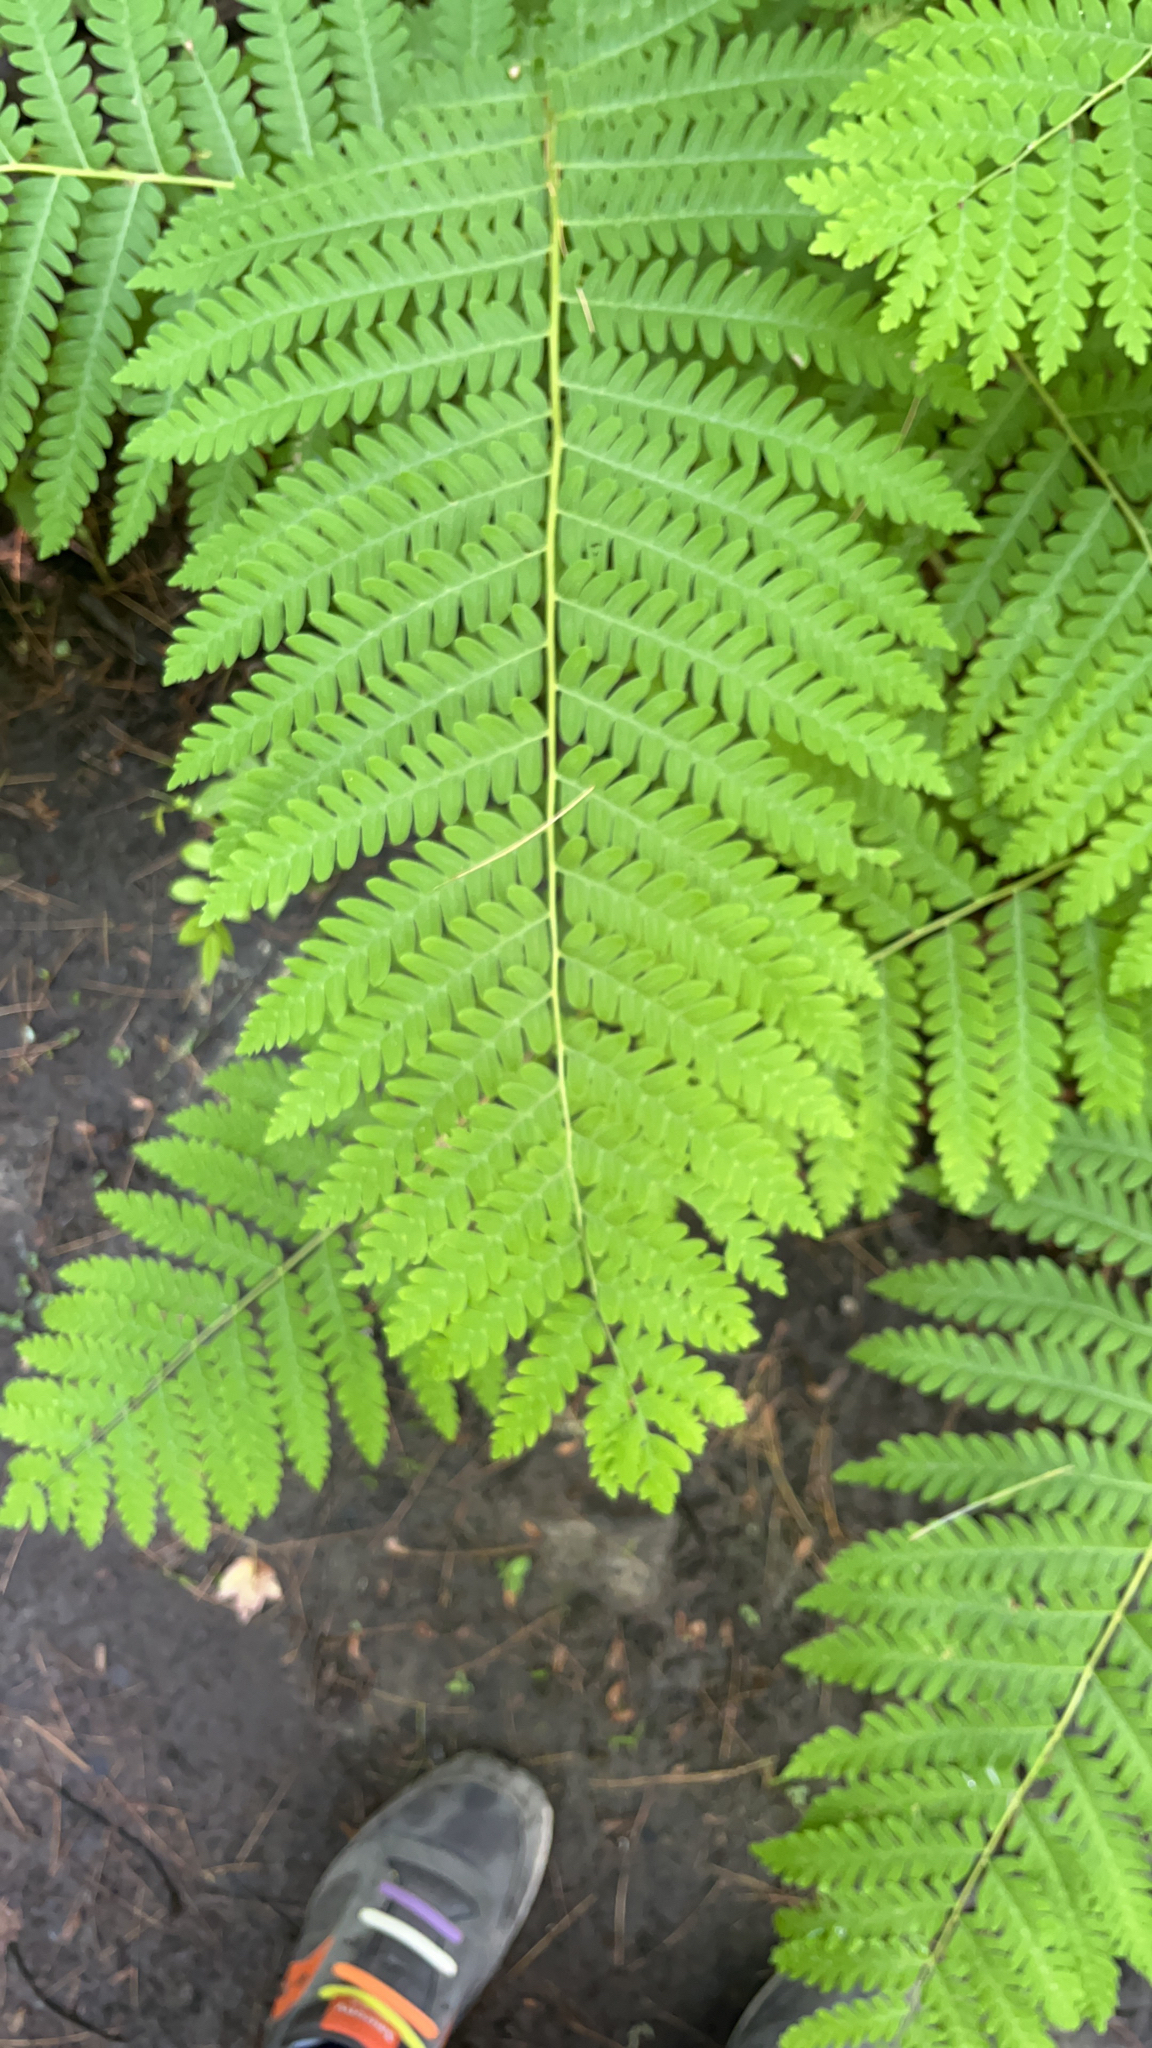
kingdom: Plantae
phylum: Tracheophyta
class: Polypodiopsida
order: Osmundales
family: Osmundaceae
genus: Claytosmunda
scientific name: Claytosmunda claytoniana
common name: Clayton's fern
